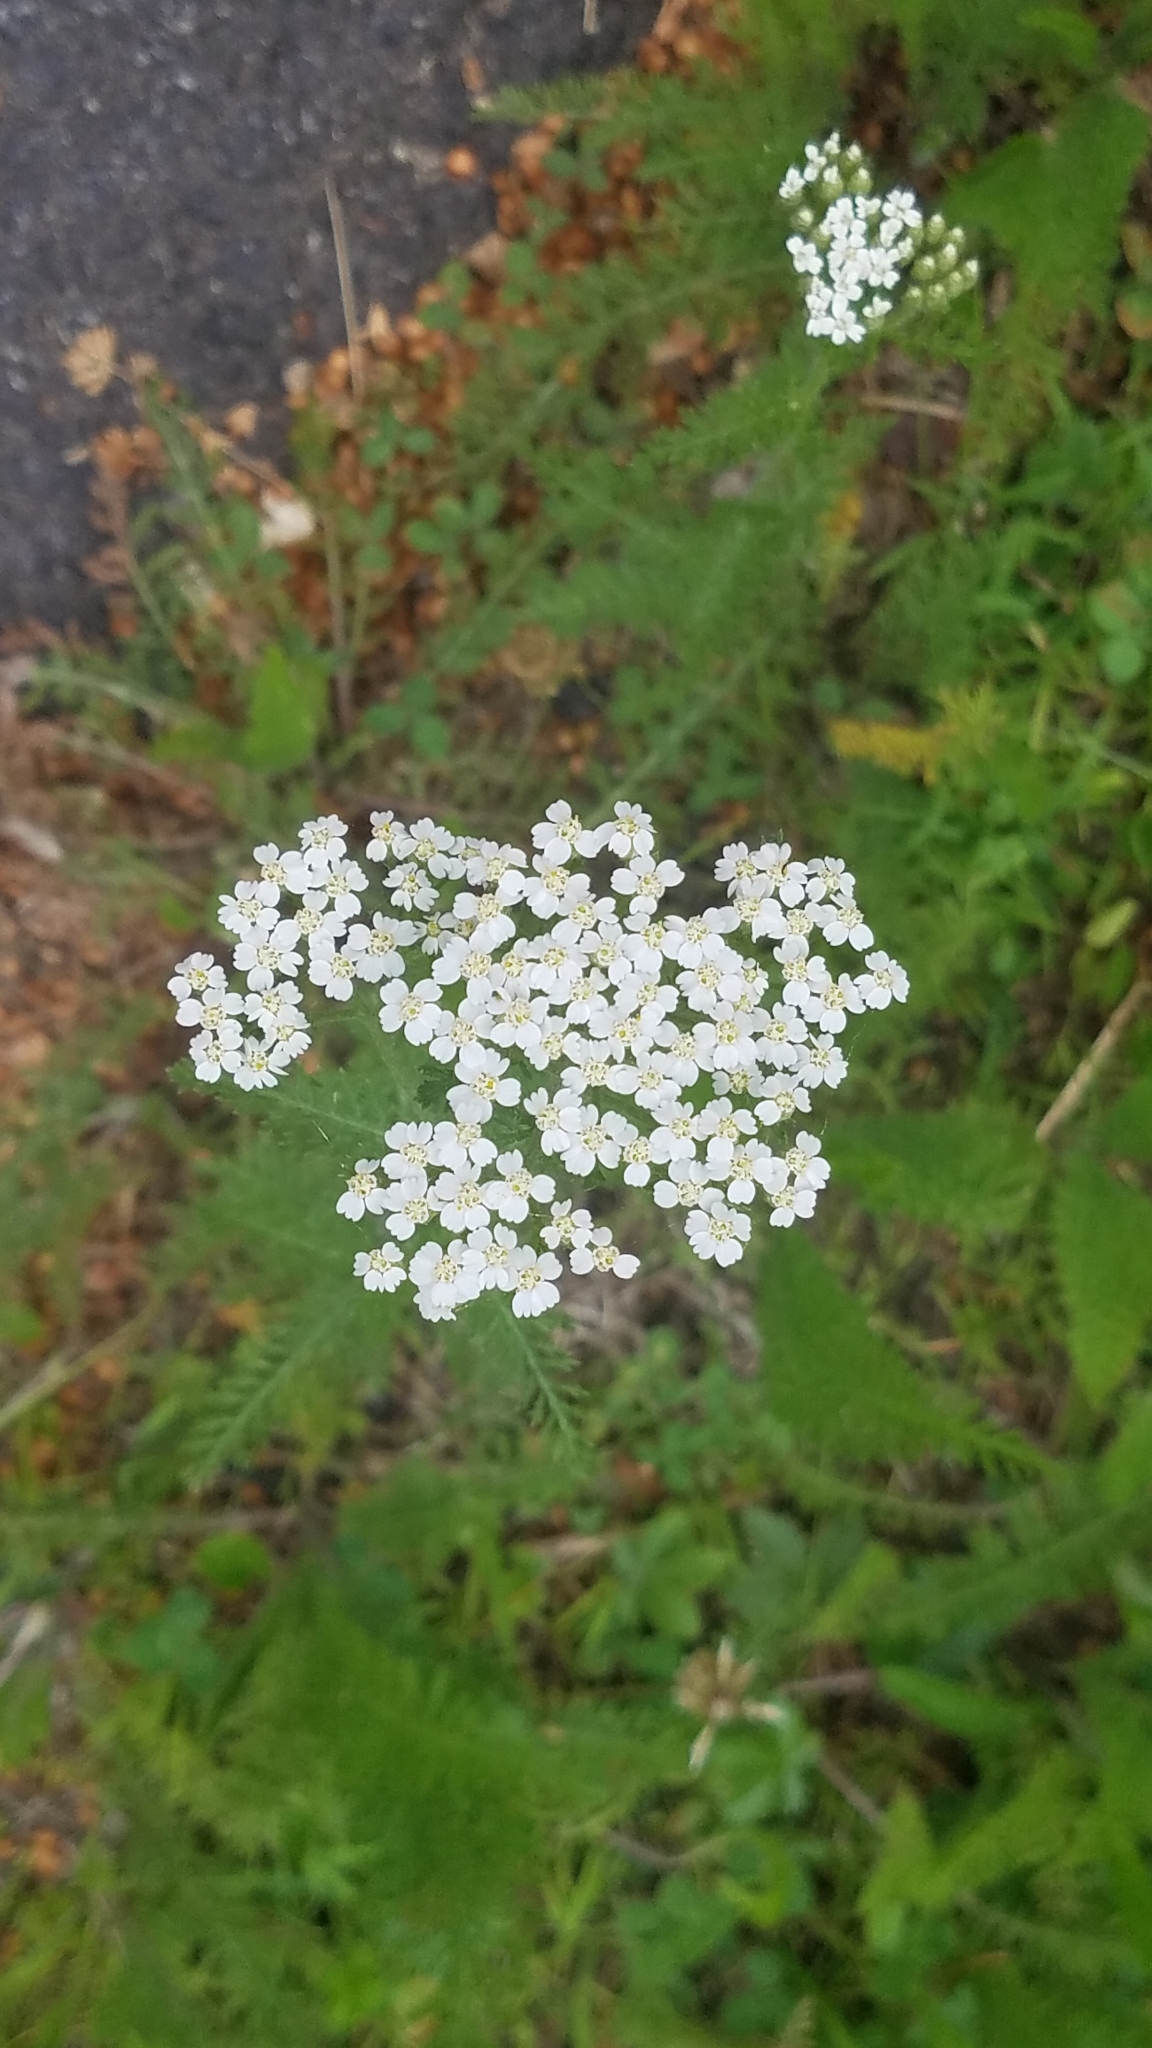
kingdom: Plantae
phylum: Tracheophyta
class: Magnoliopsida
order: Asterales
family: Asteraceae
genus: Achillea
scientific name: Achillea millefolium
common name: Yarrow
